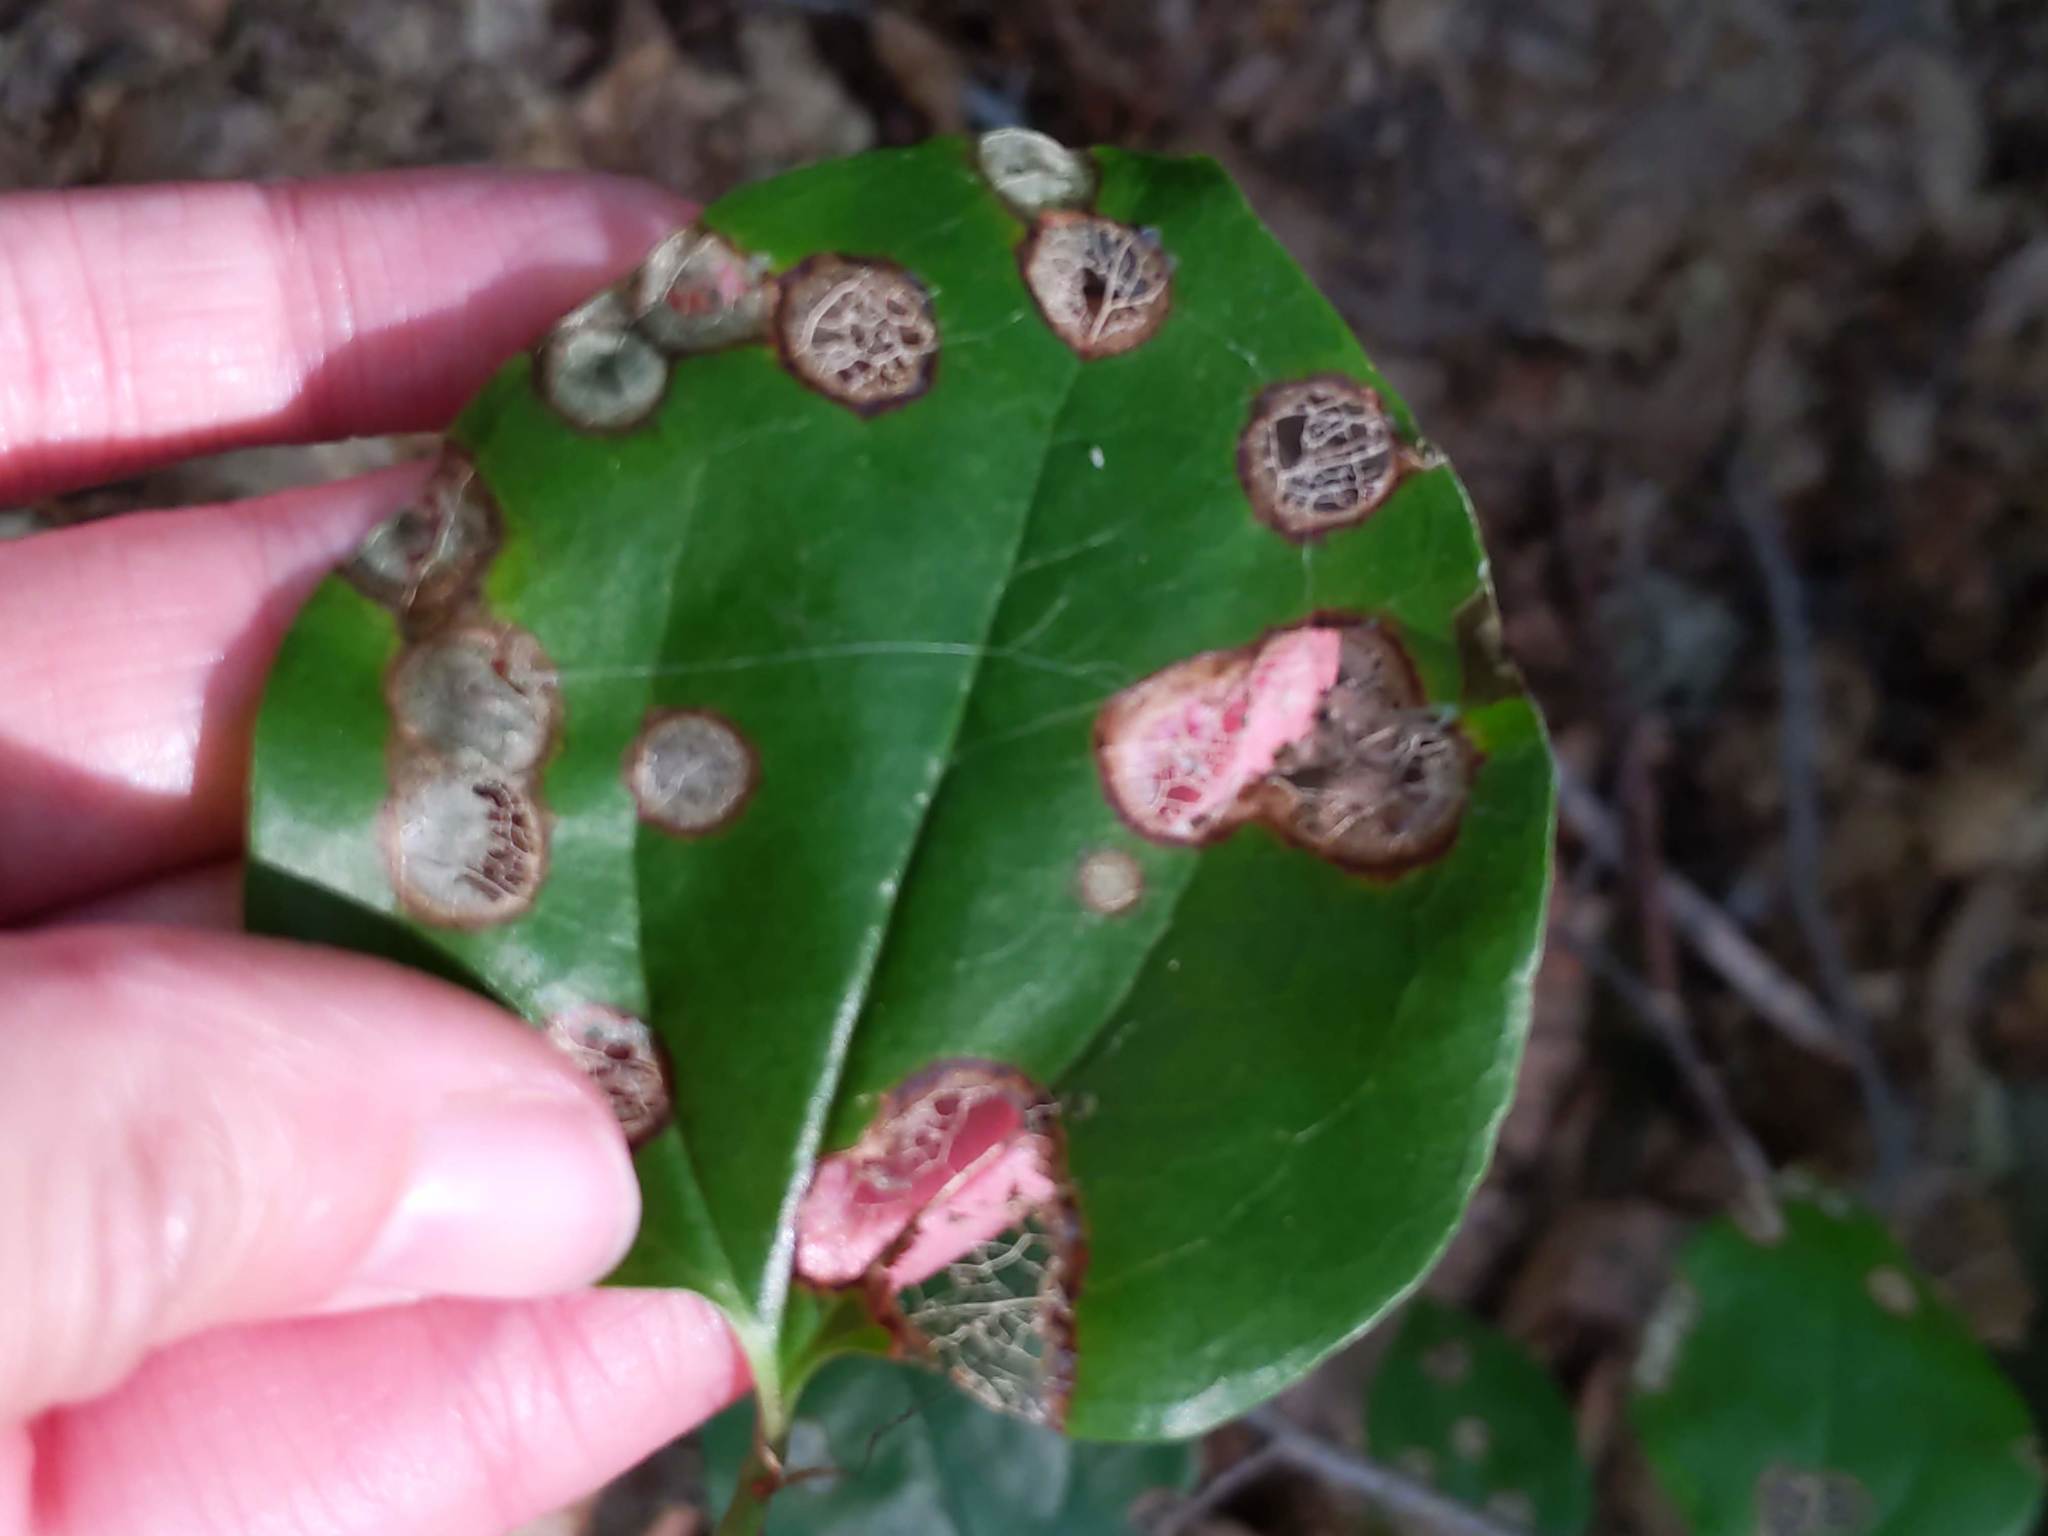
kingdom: Plantae
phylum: Tracheophyta
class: Liliopsida
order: Liliales
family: Smilacaceae
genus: Smilax
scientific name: Smilax rotundifolia
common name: Bullbriar
